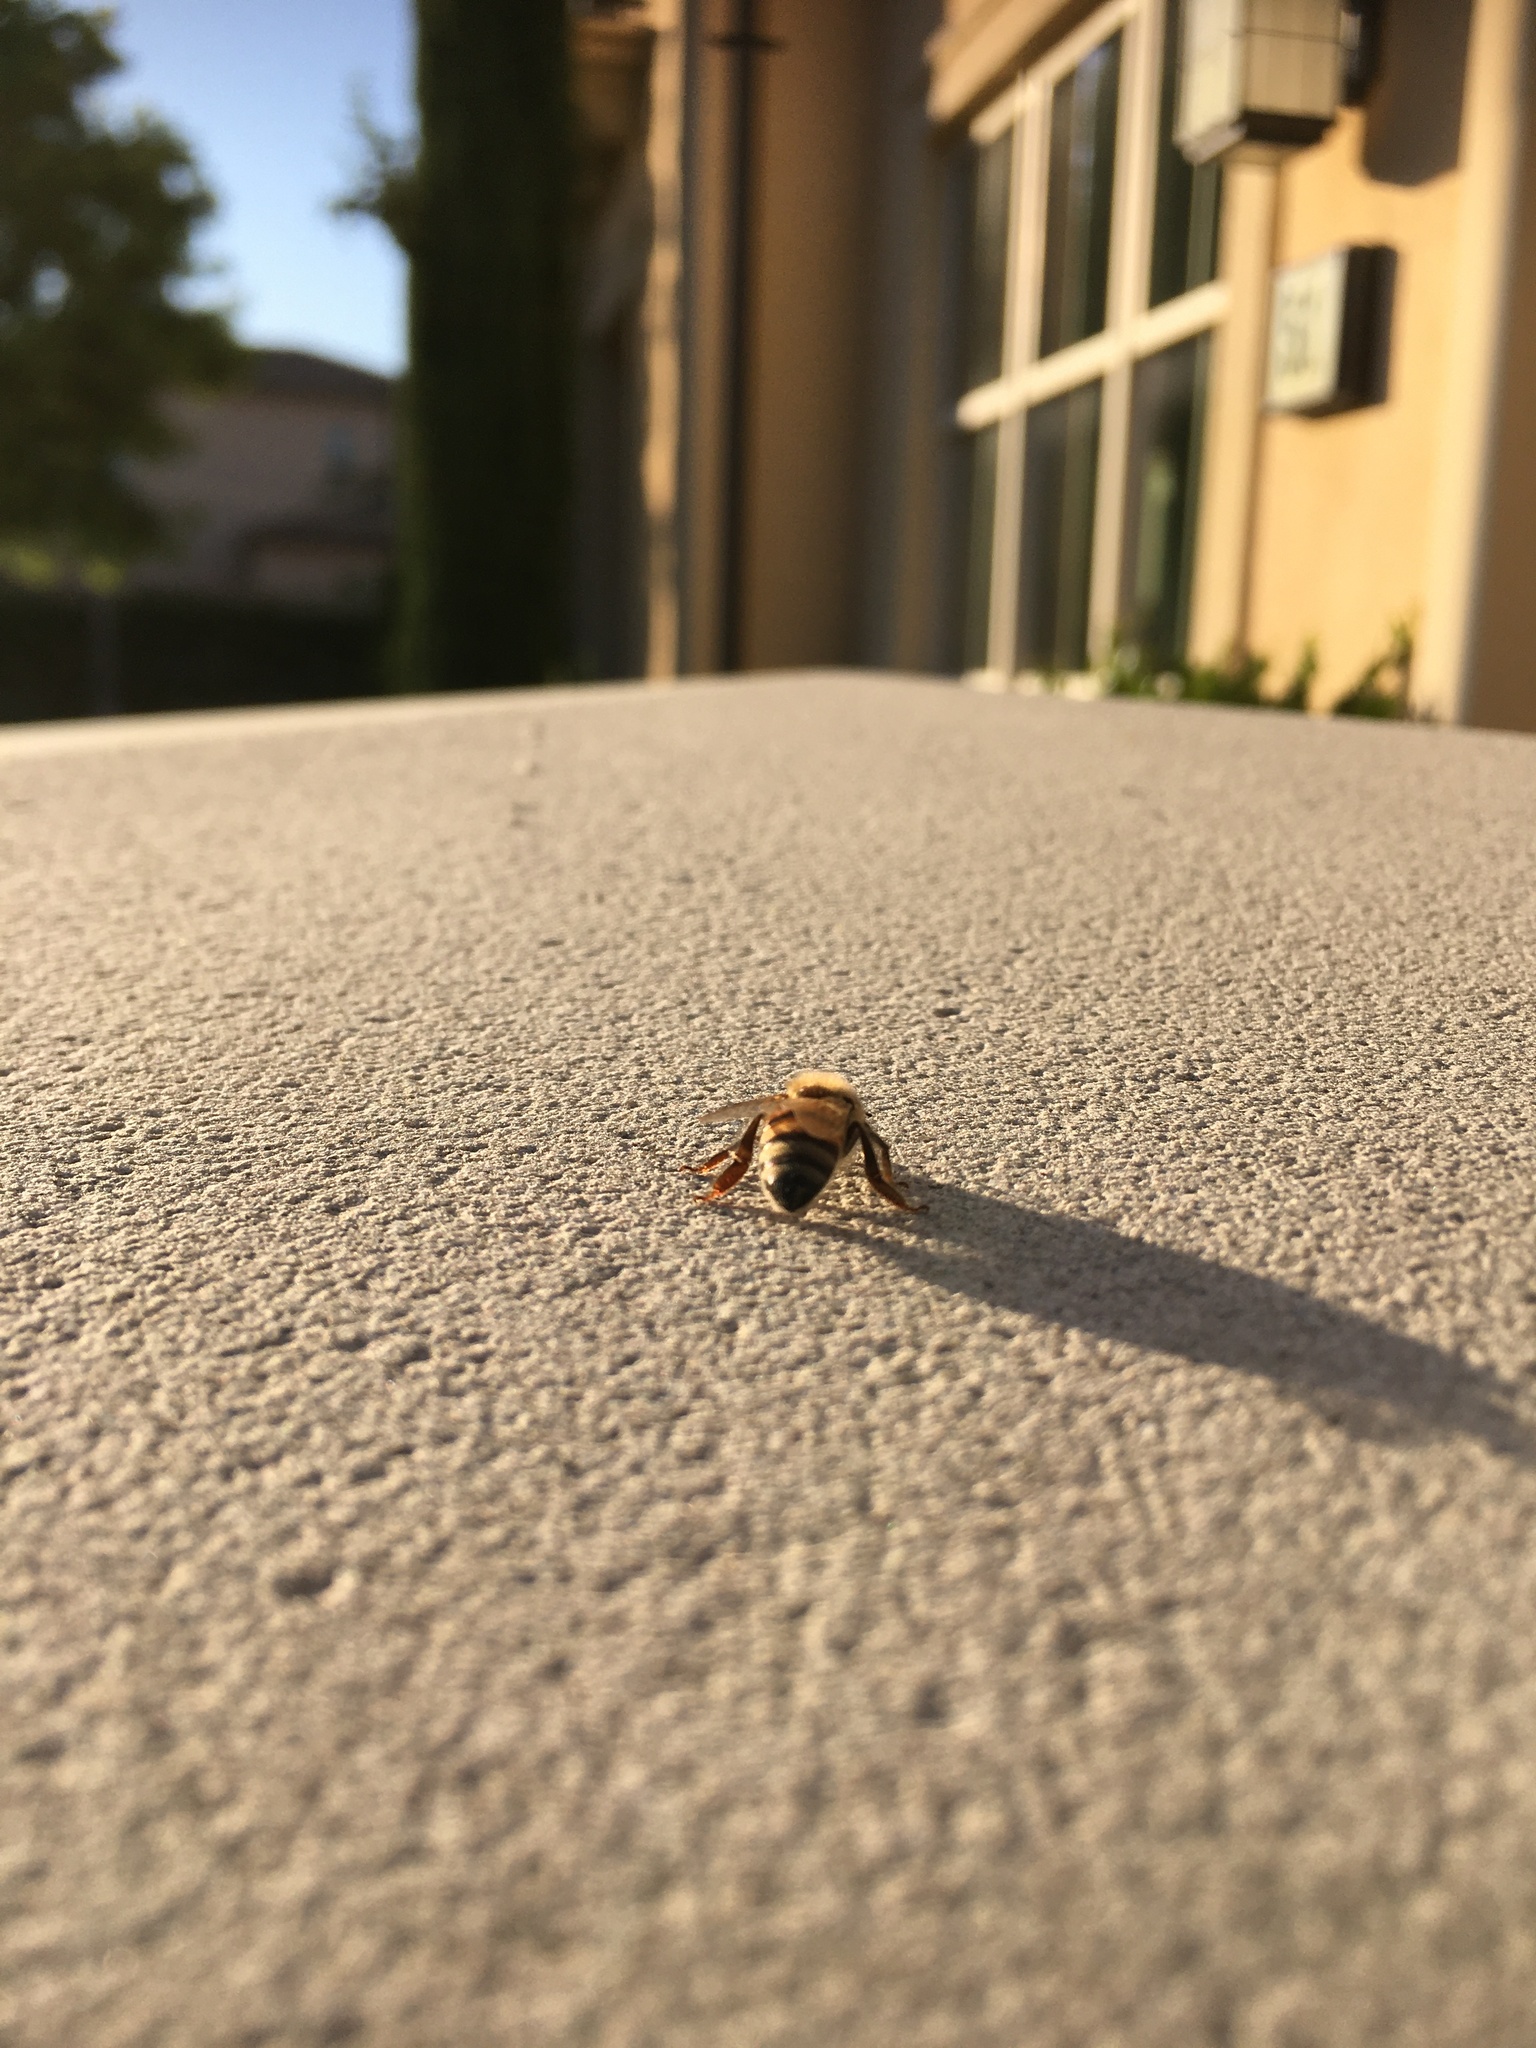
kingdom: Animalia
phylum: Arthropoda
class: Insecta
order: Hymenoptera
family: Apidae
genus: Apis
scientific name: Apis mellifera
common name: Honey bee
